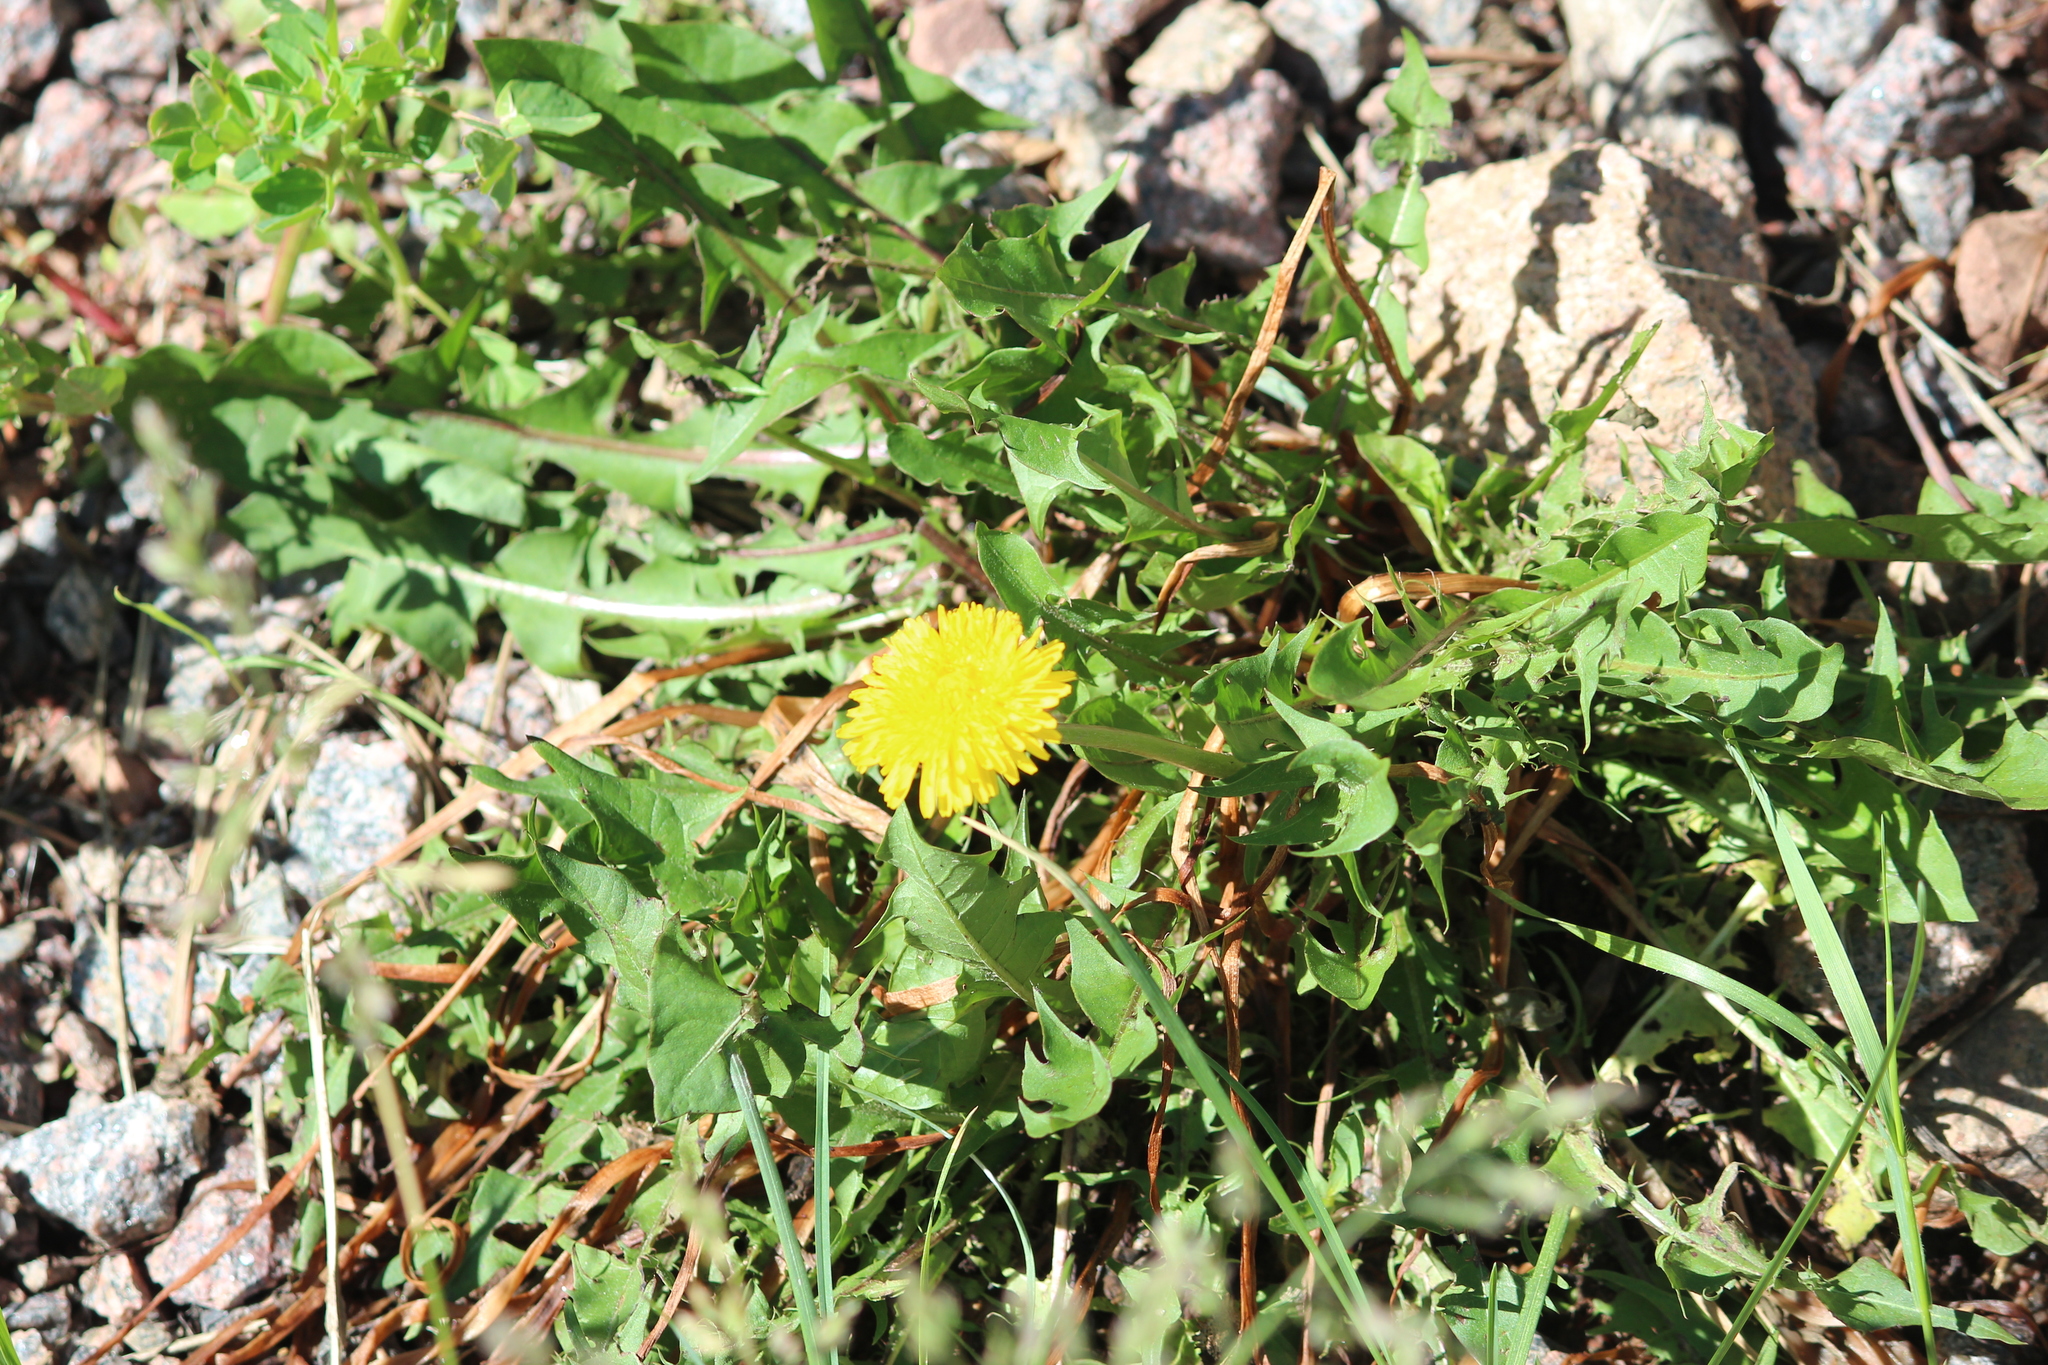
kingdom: Plantae
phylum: Tracheophyta
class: Magnoliopsida
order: Asterales
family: Asteraceae
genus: Taraxacum
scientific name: Taraxacum officinale
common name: Common dandelion
